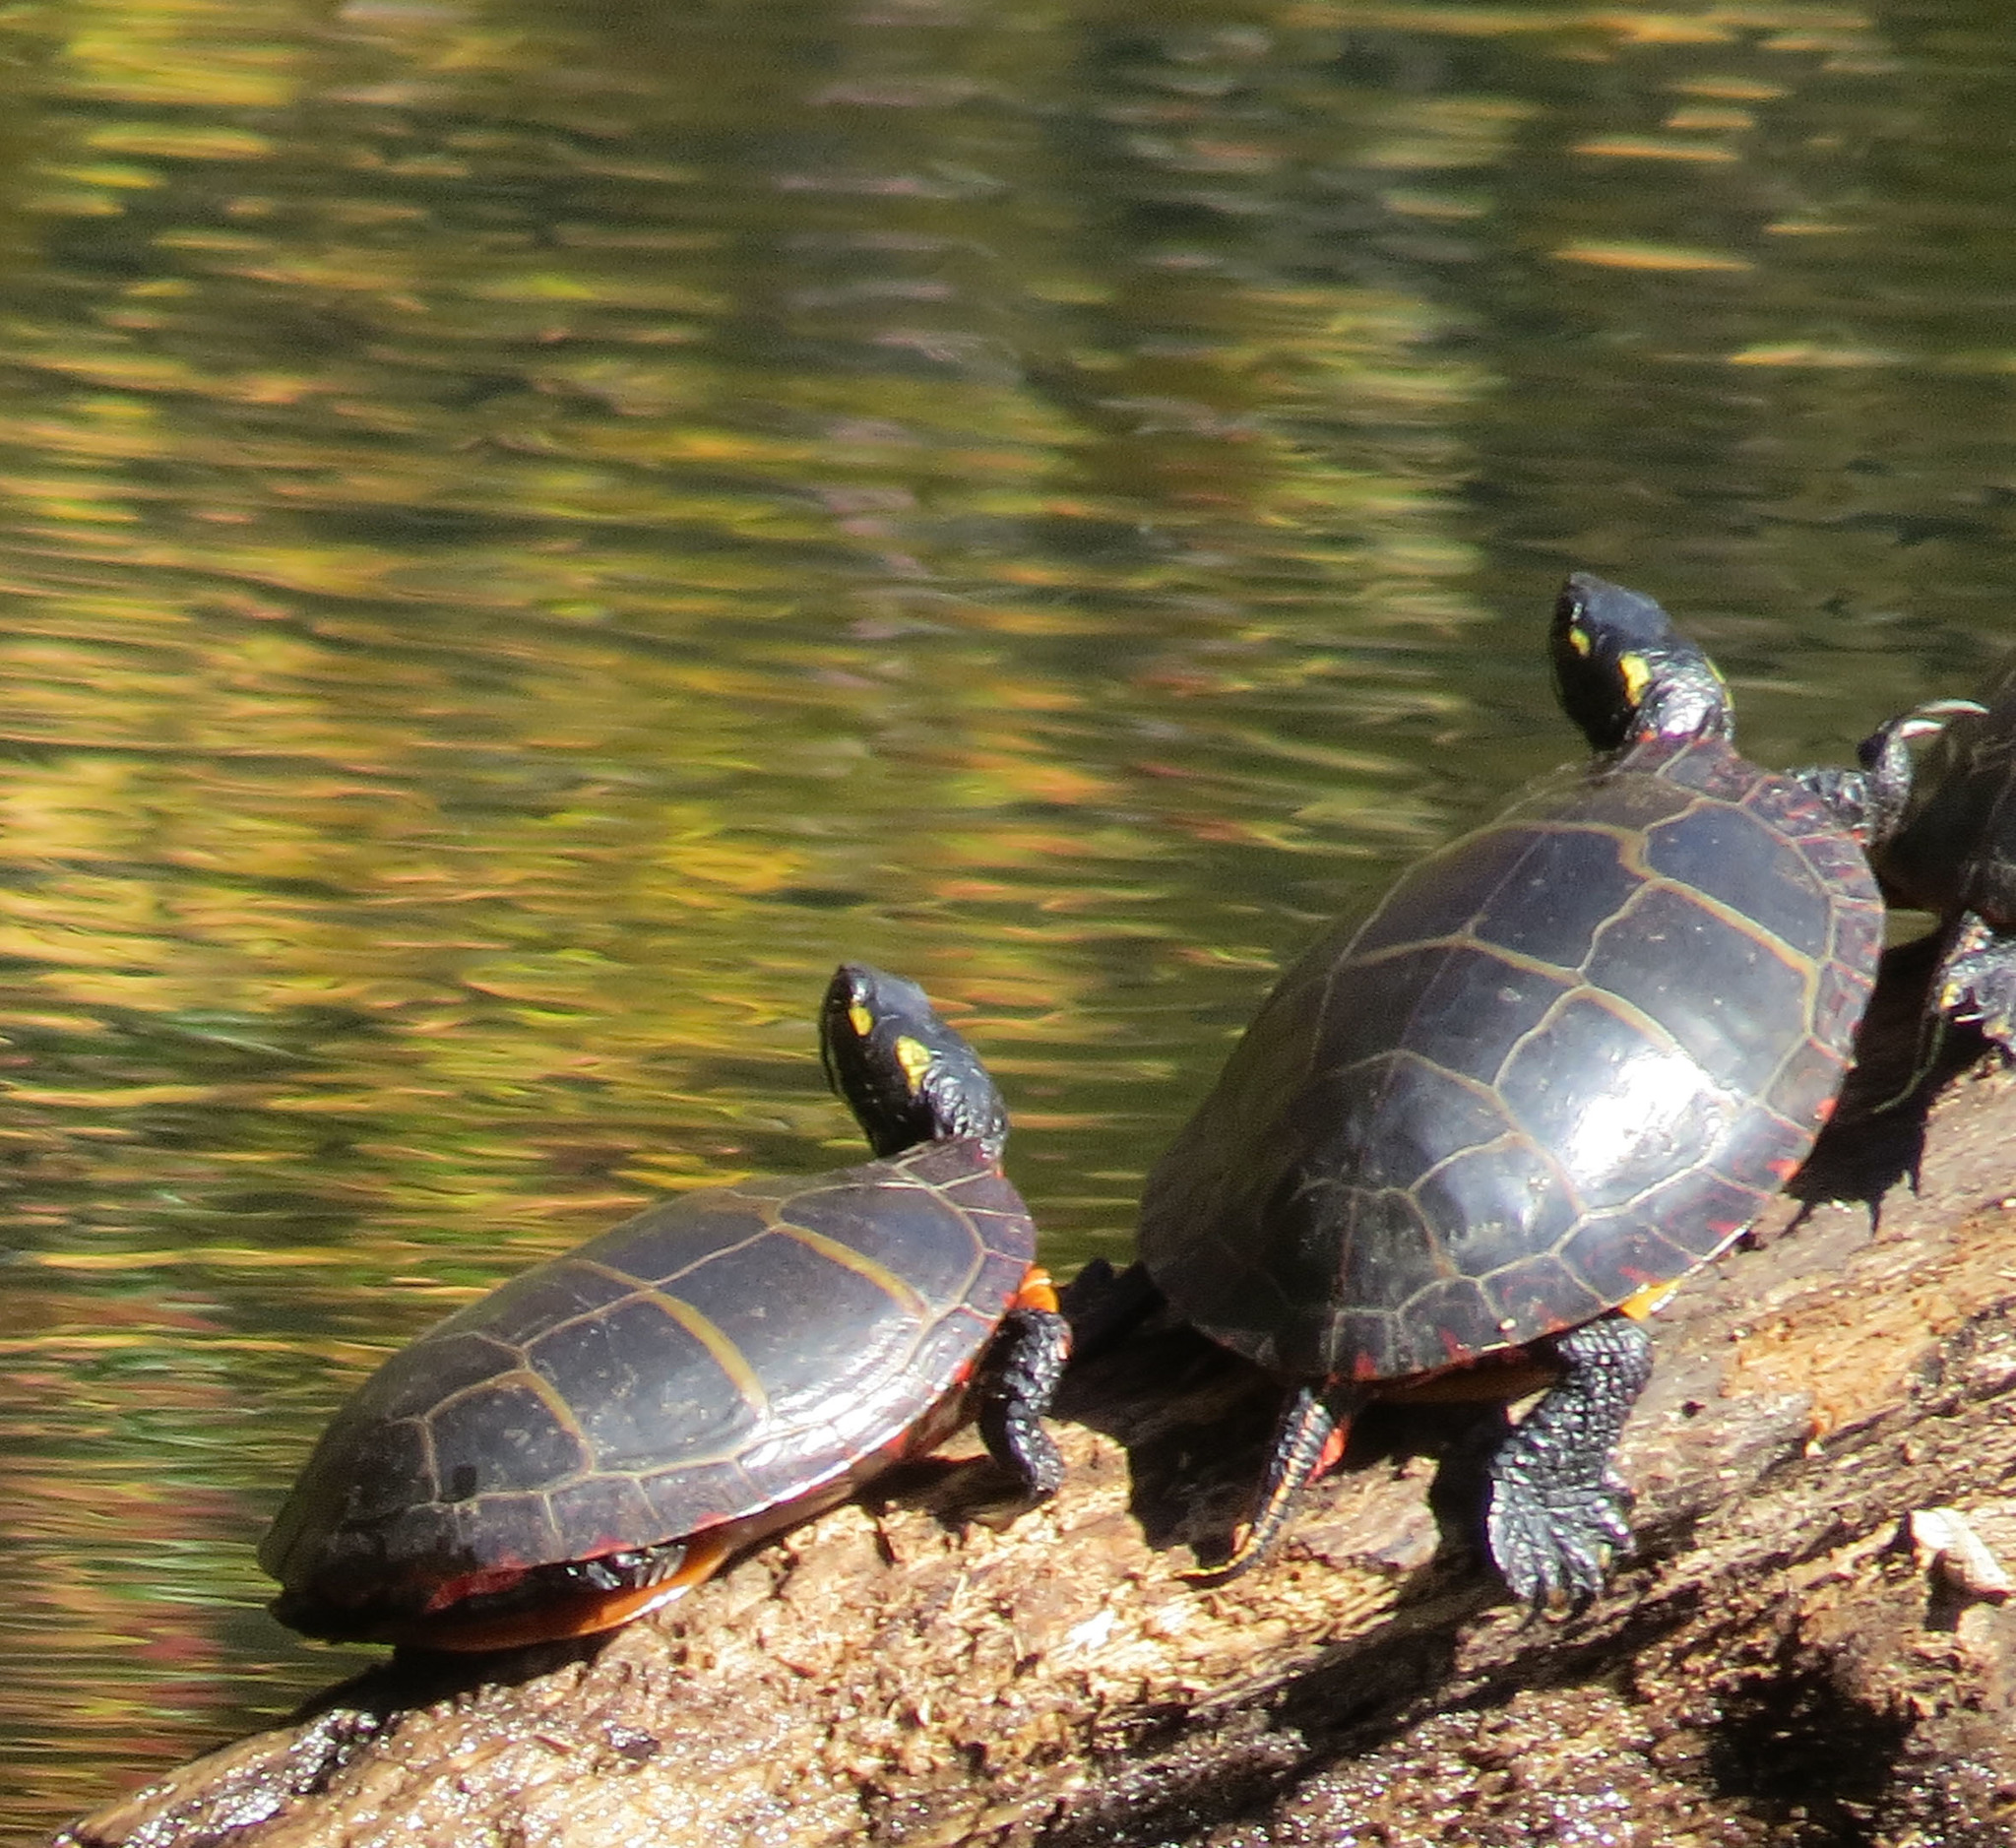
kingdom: Animalia
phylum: Chordata
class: Testudines
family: Emydidae
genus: Chrysemys
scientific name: Chrysemys picta
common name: Painted turtle
